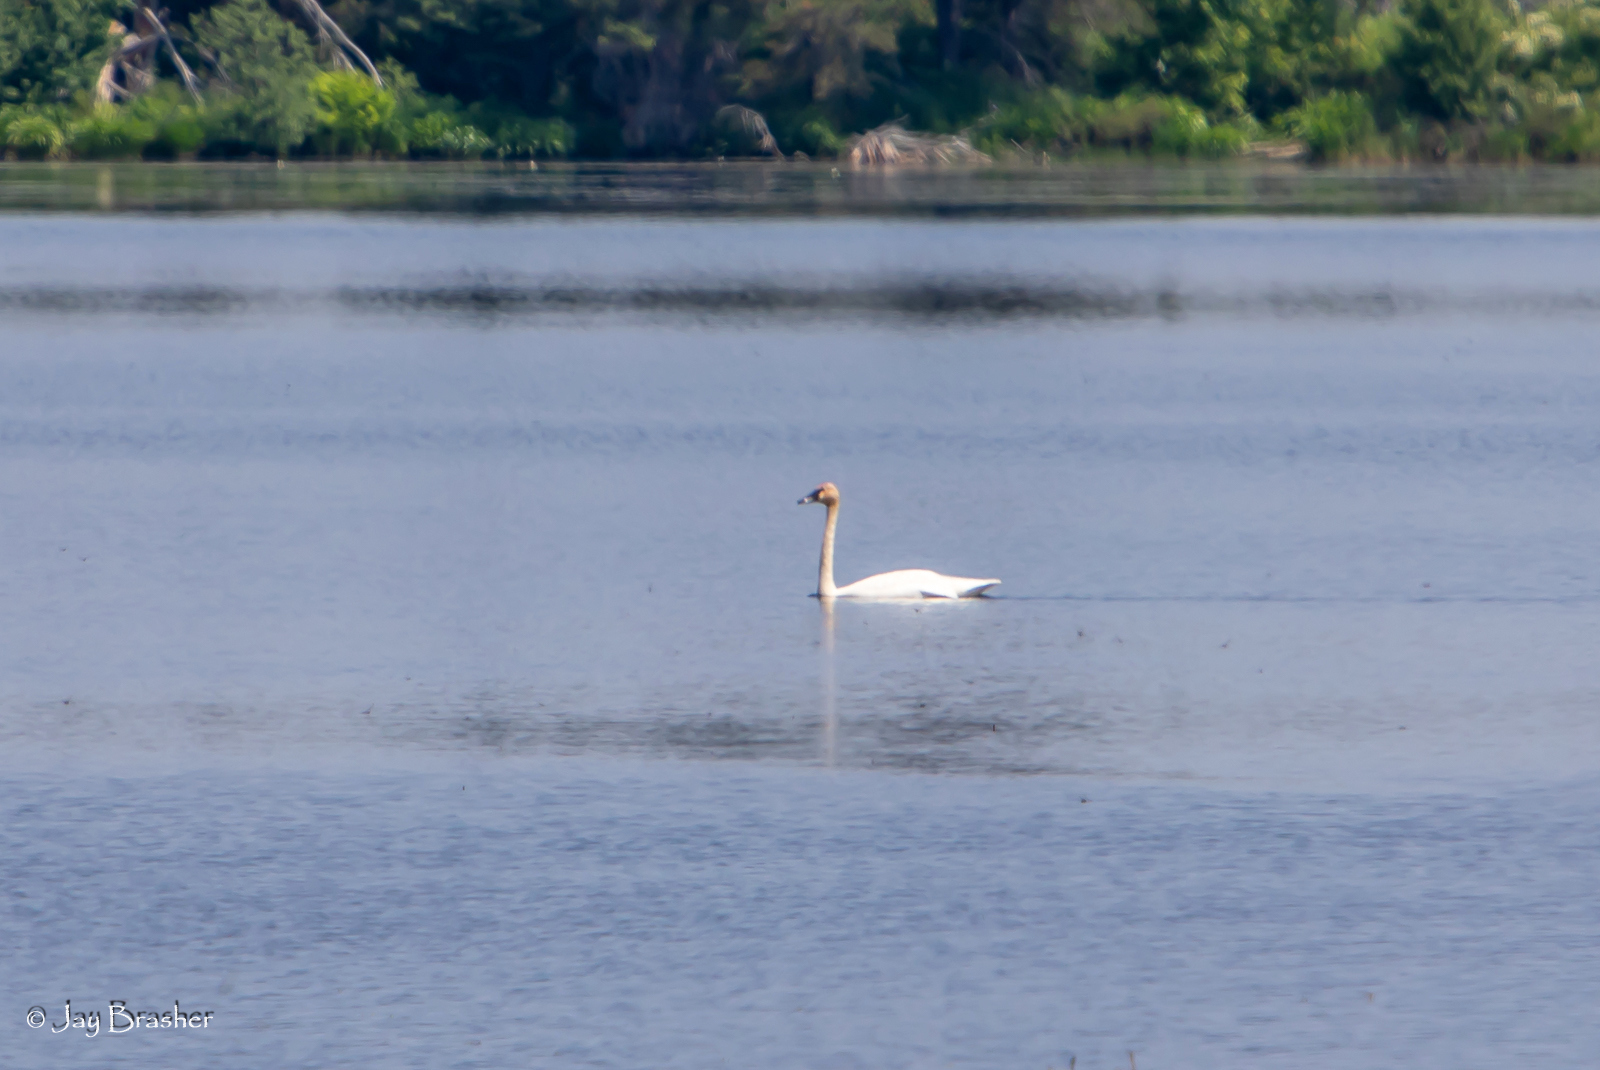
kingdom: Animalia
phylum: Chordata
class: Aves
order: Anseriformes
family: Anatidae
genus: Cygnus
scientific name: Cygnus buccinator
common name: Trumpeter swan
